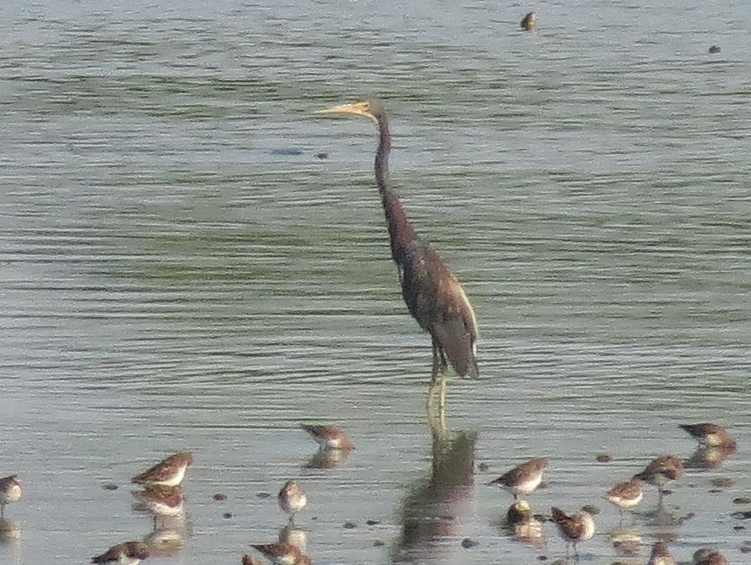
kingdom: Animalia
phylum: Chordata
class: Aves
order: Pelecaniformes
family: Ardeidae
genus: Egretta
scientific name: Egretta tricolor
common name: Tricolored heron
